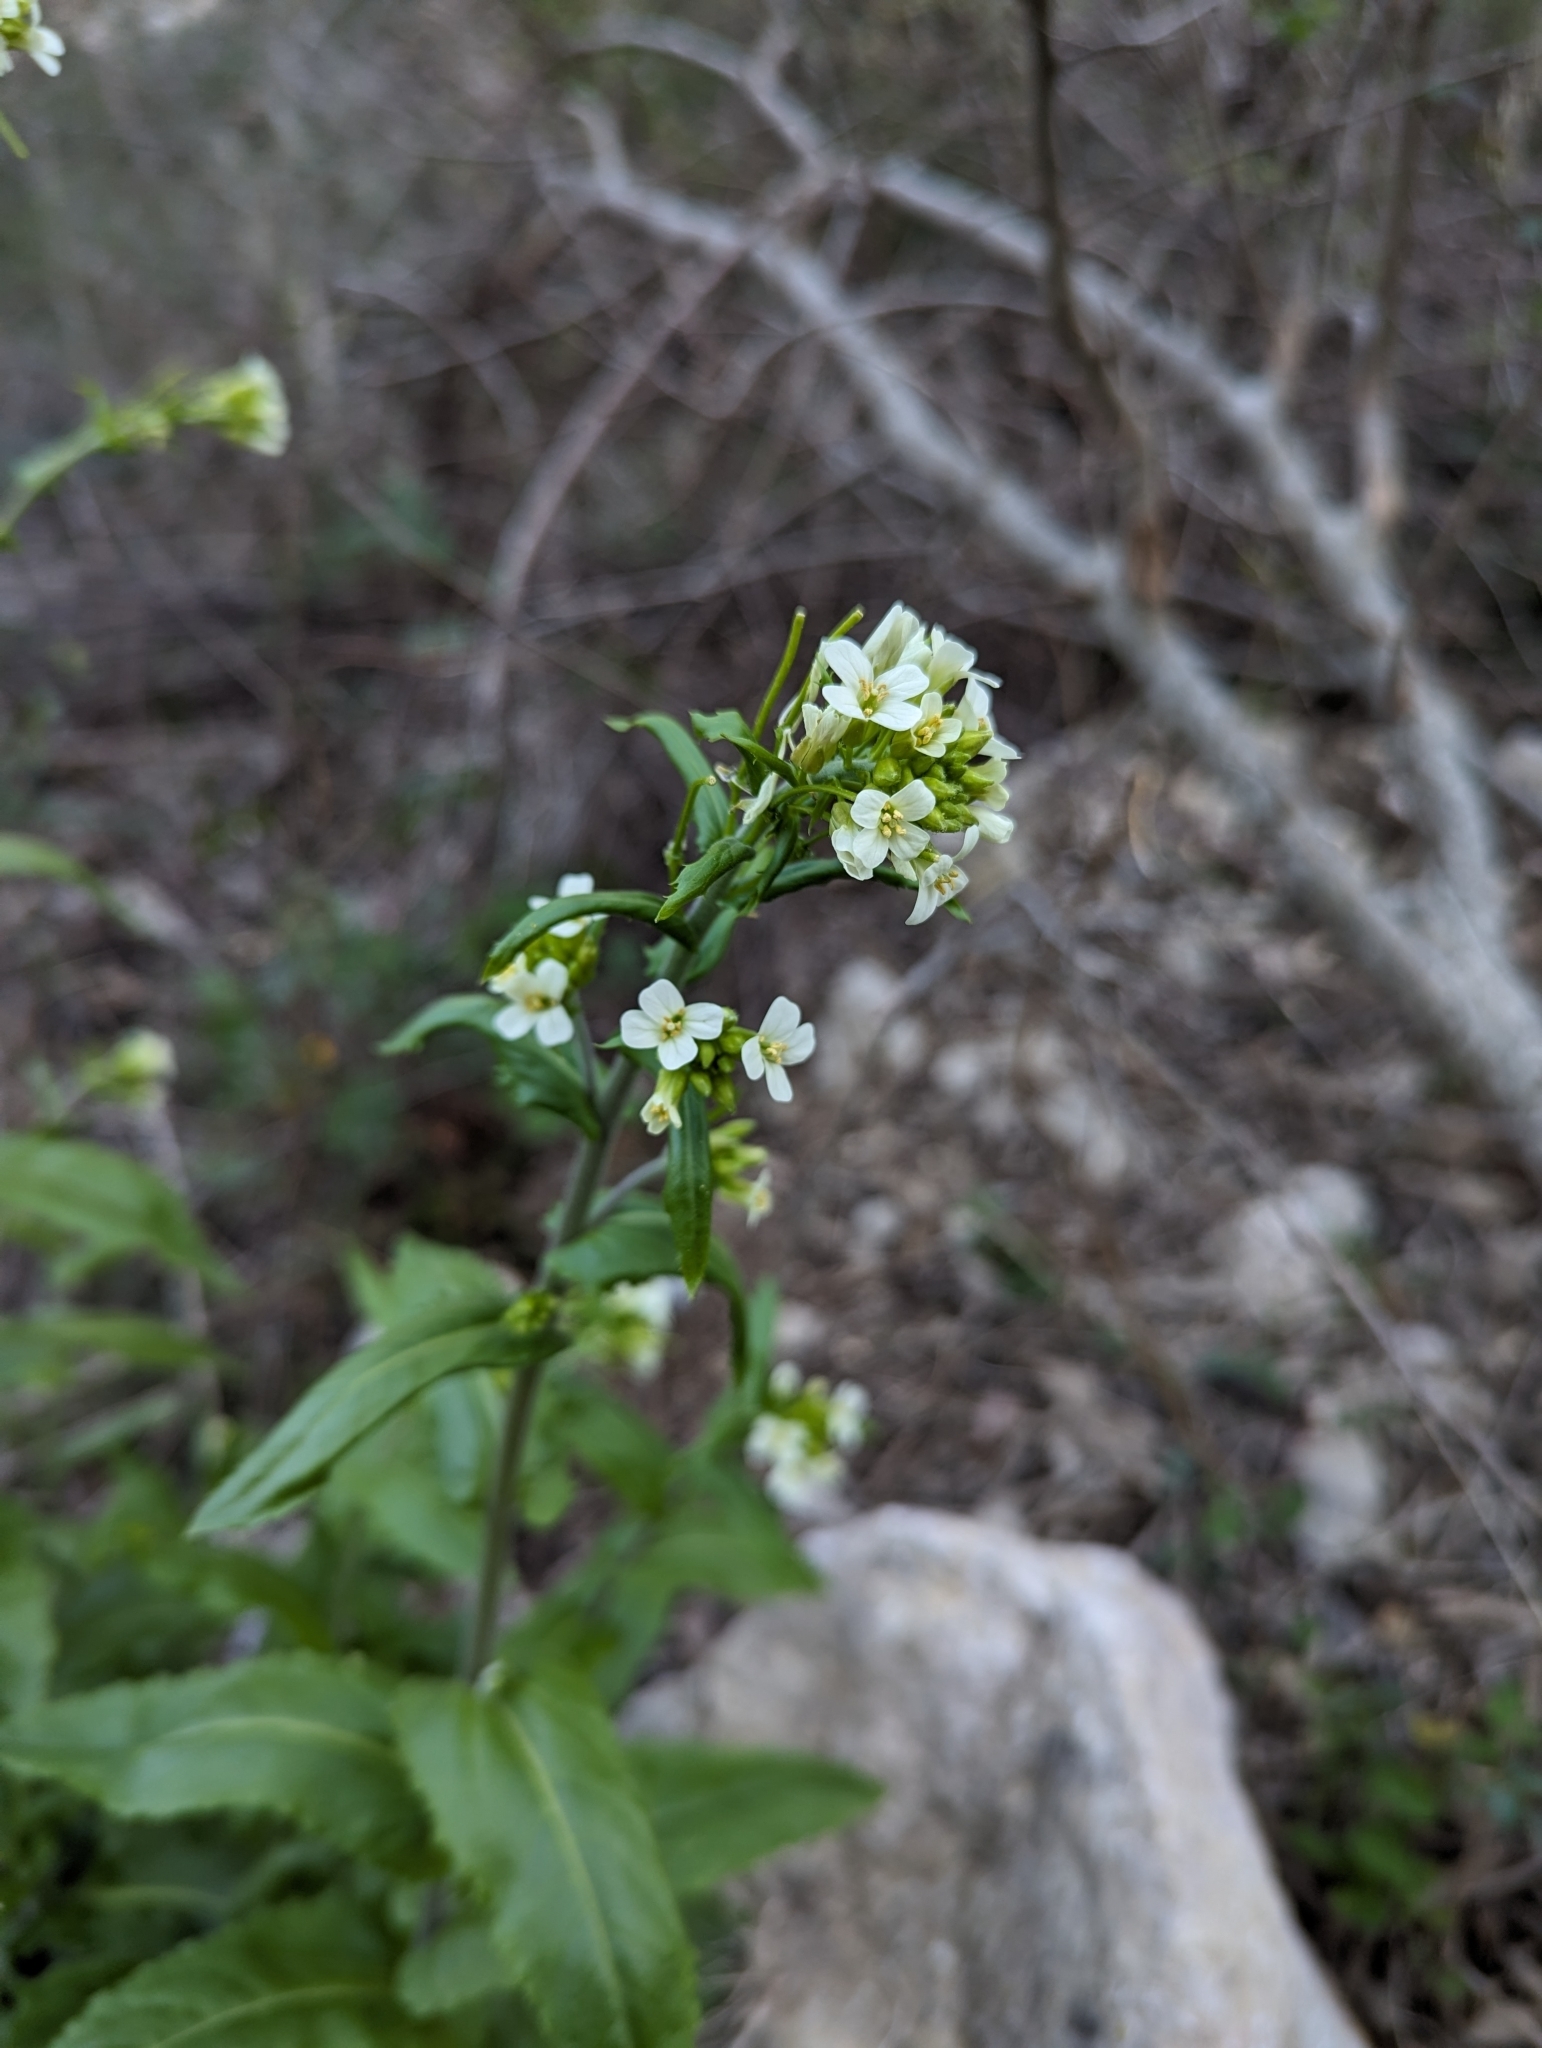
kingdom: Plantae
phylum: Tracheophyta
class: Magnoliopsida
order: Brassicales
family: Brassicaceae
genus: Pseudoturritis
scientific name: Pseudoturritis turrita
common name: Tower cress
